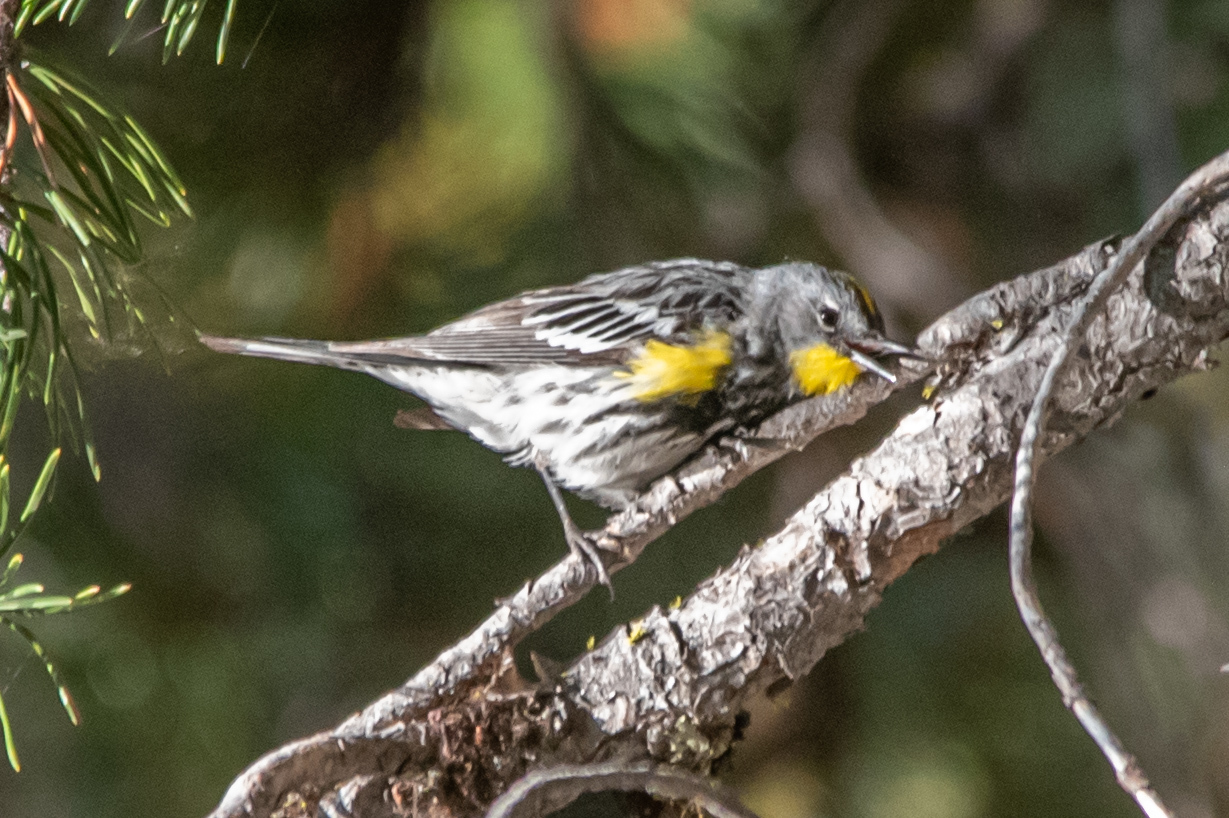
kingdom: Animalia
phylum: Chordata
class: Aves
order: Passeriformes
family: Parulidae
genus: Setophaga
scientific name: Setophaga coronata
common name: Myrtle warbler
